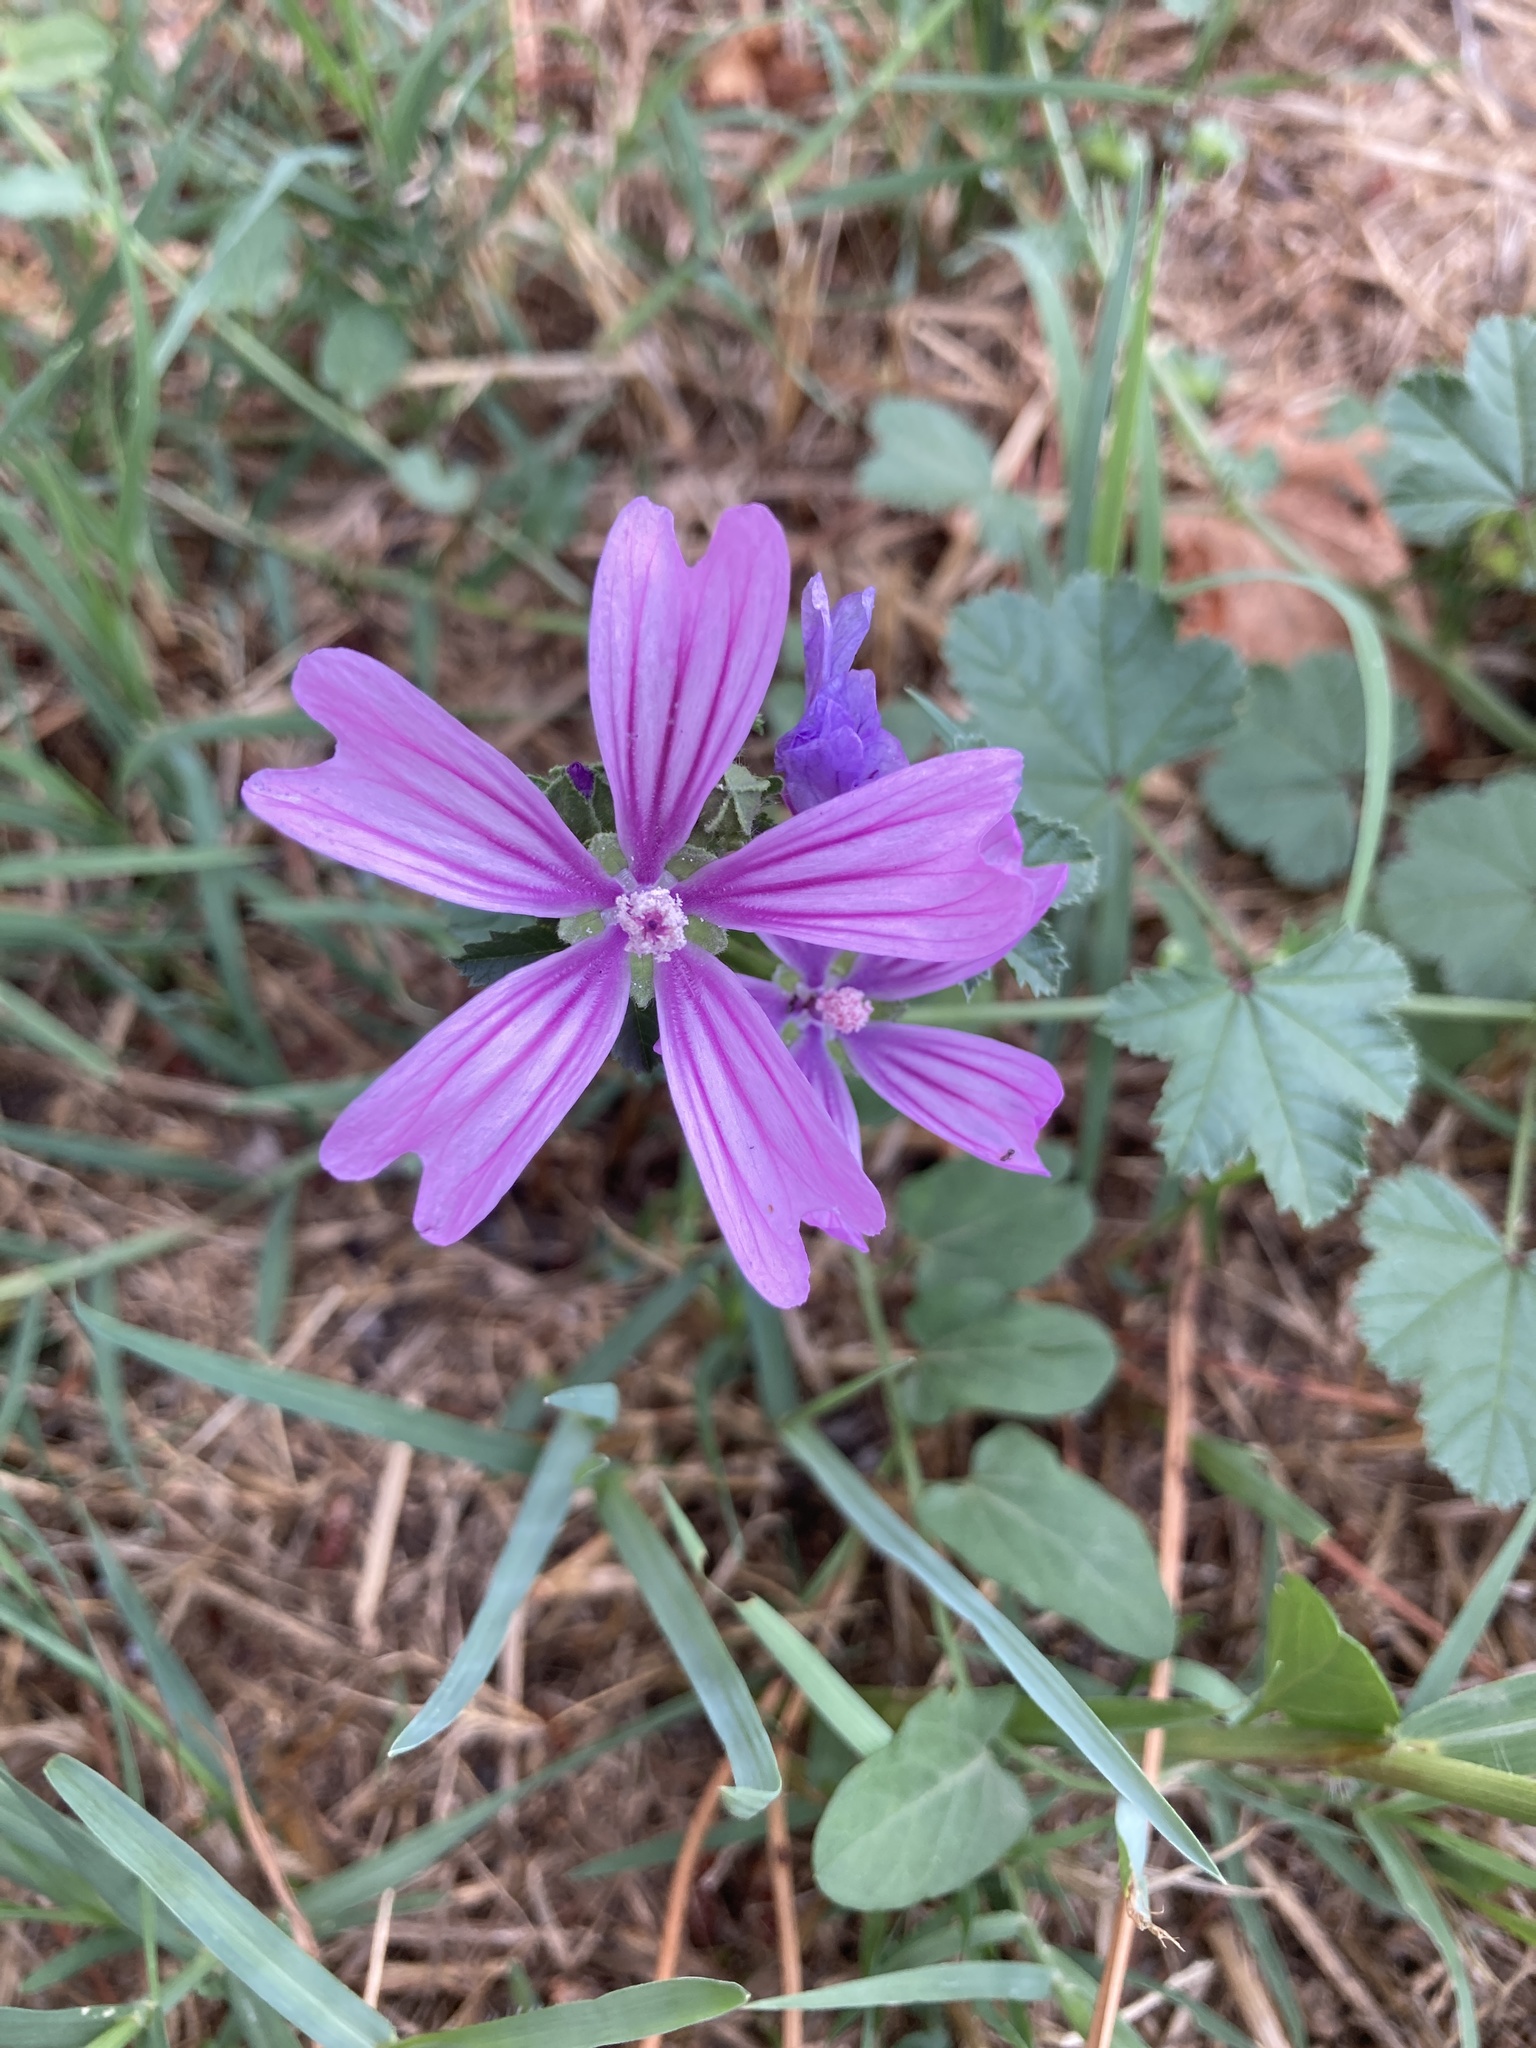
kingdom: Plantae
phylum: Tracheophyta
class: Magnoliopsida
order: Malvales
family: Malvaceae
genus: Malva
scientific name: Malva sylvestris
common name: Common mallow
